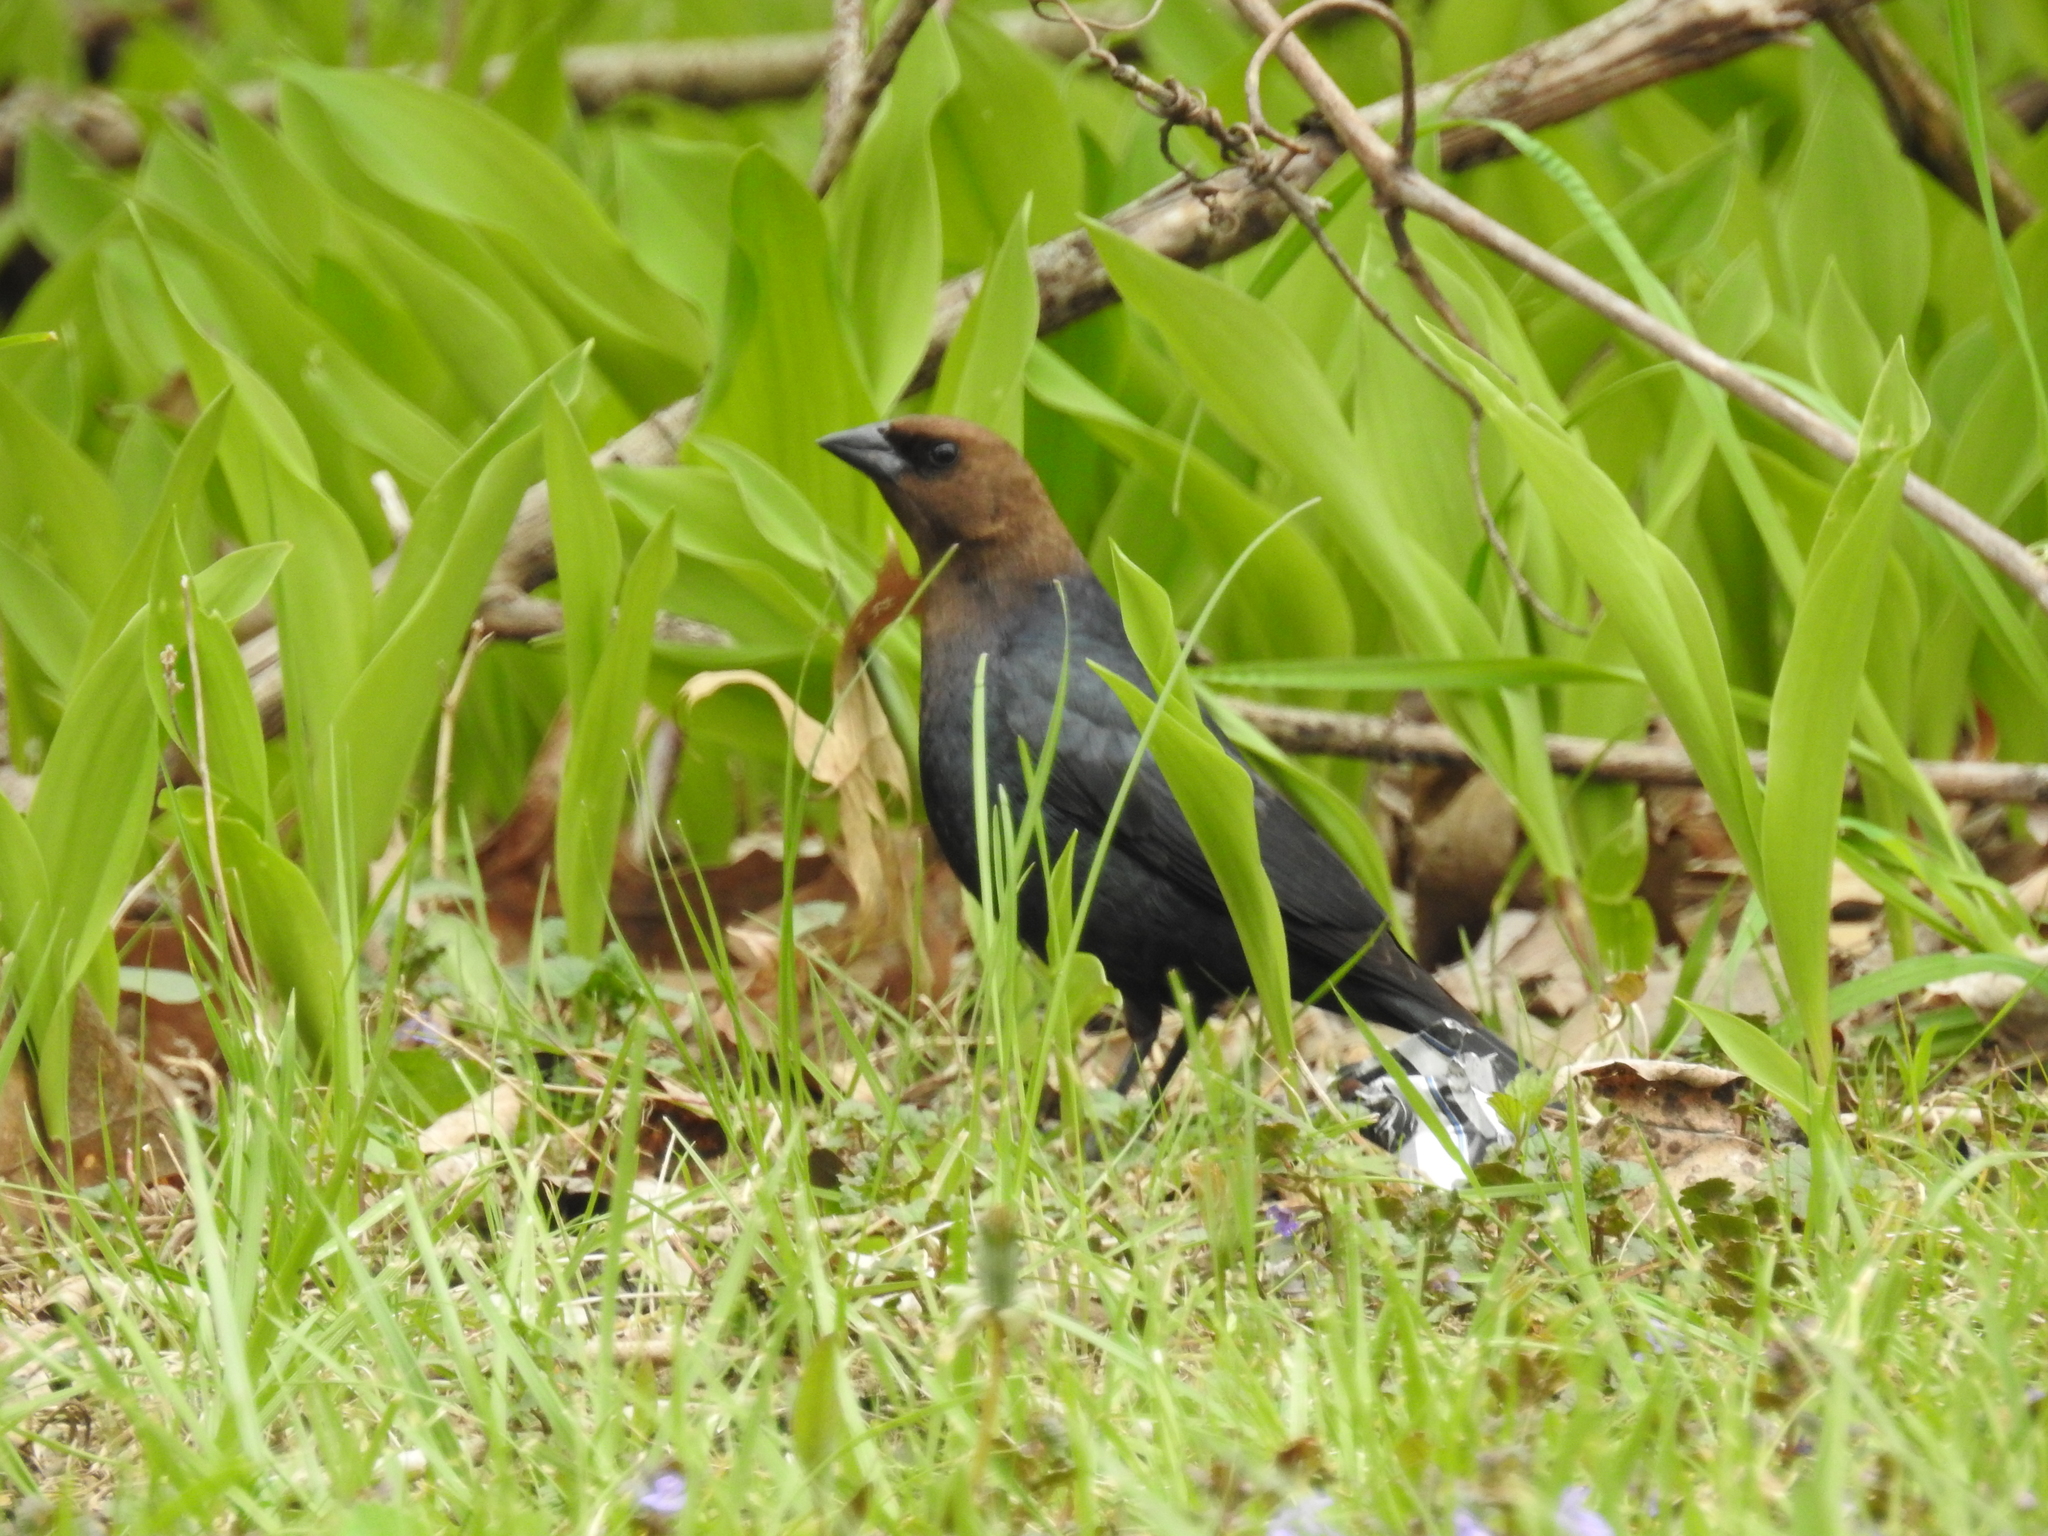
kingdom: Animalia
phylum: Chordata
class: Aves
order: Passeriformes
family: Icteridae
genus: Molothrus
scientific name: Molothrus ater
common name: Brown-headed cowbird
